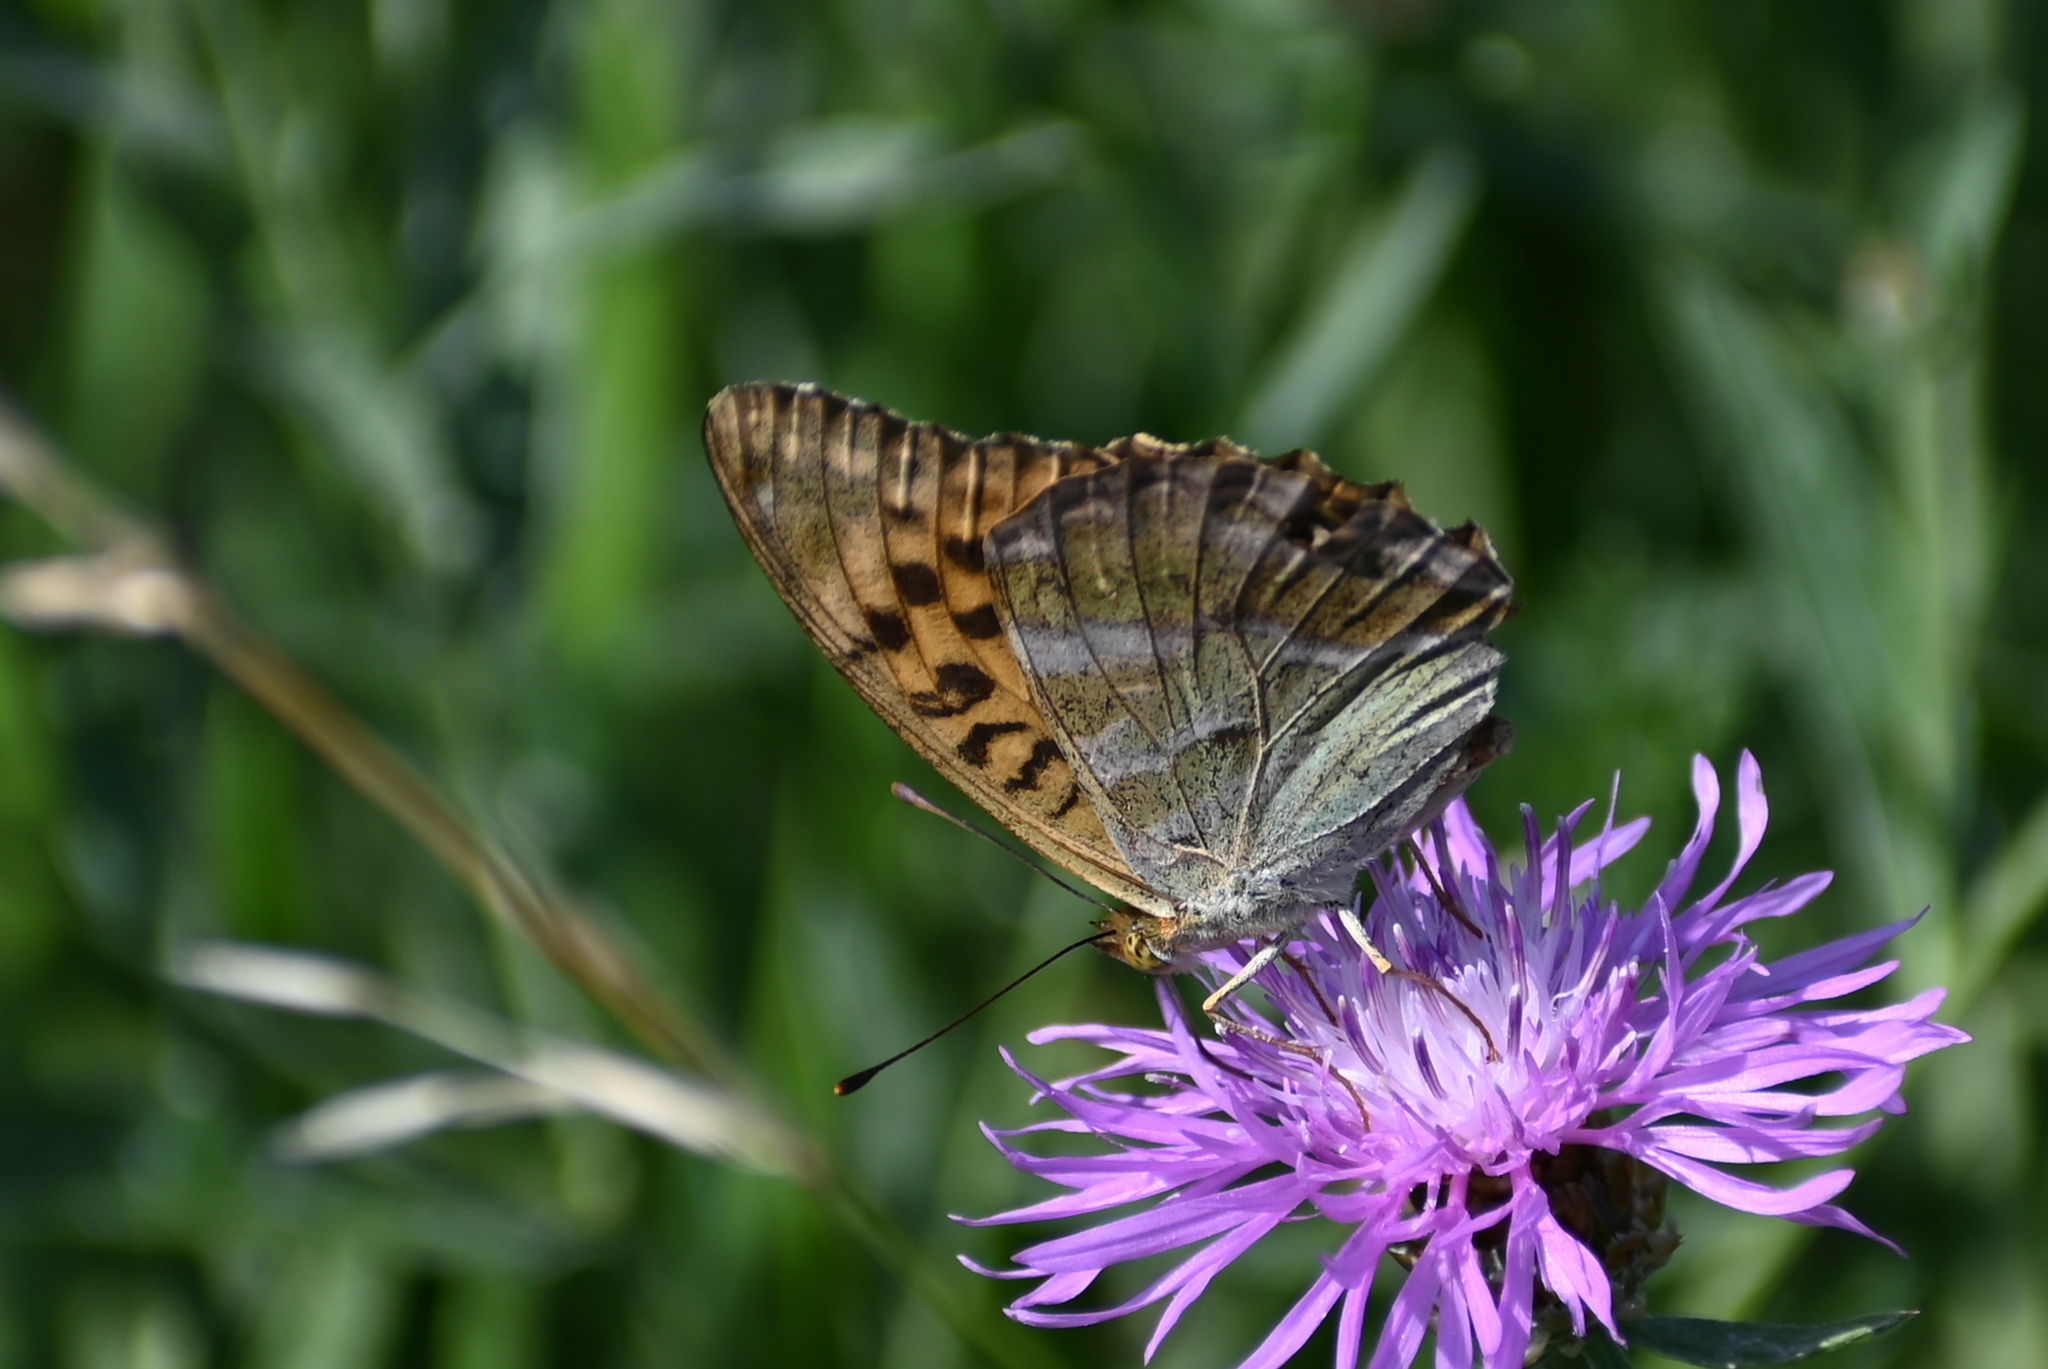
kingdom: Animalia
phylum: Arthropoda
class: Insecta
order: Lepidoptera
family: Nymphalidae
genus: Argynnis
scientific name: Argynnis paphia
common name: Silver-washed fritillary
